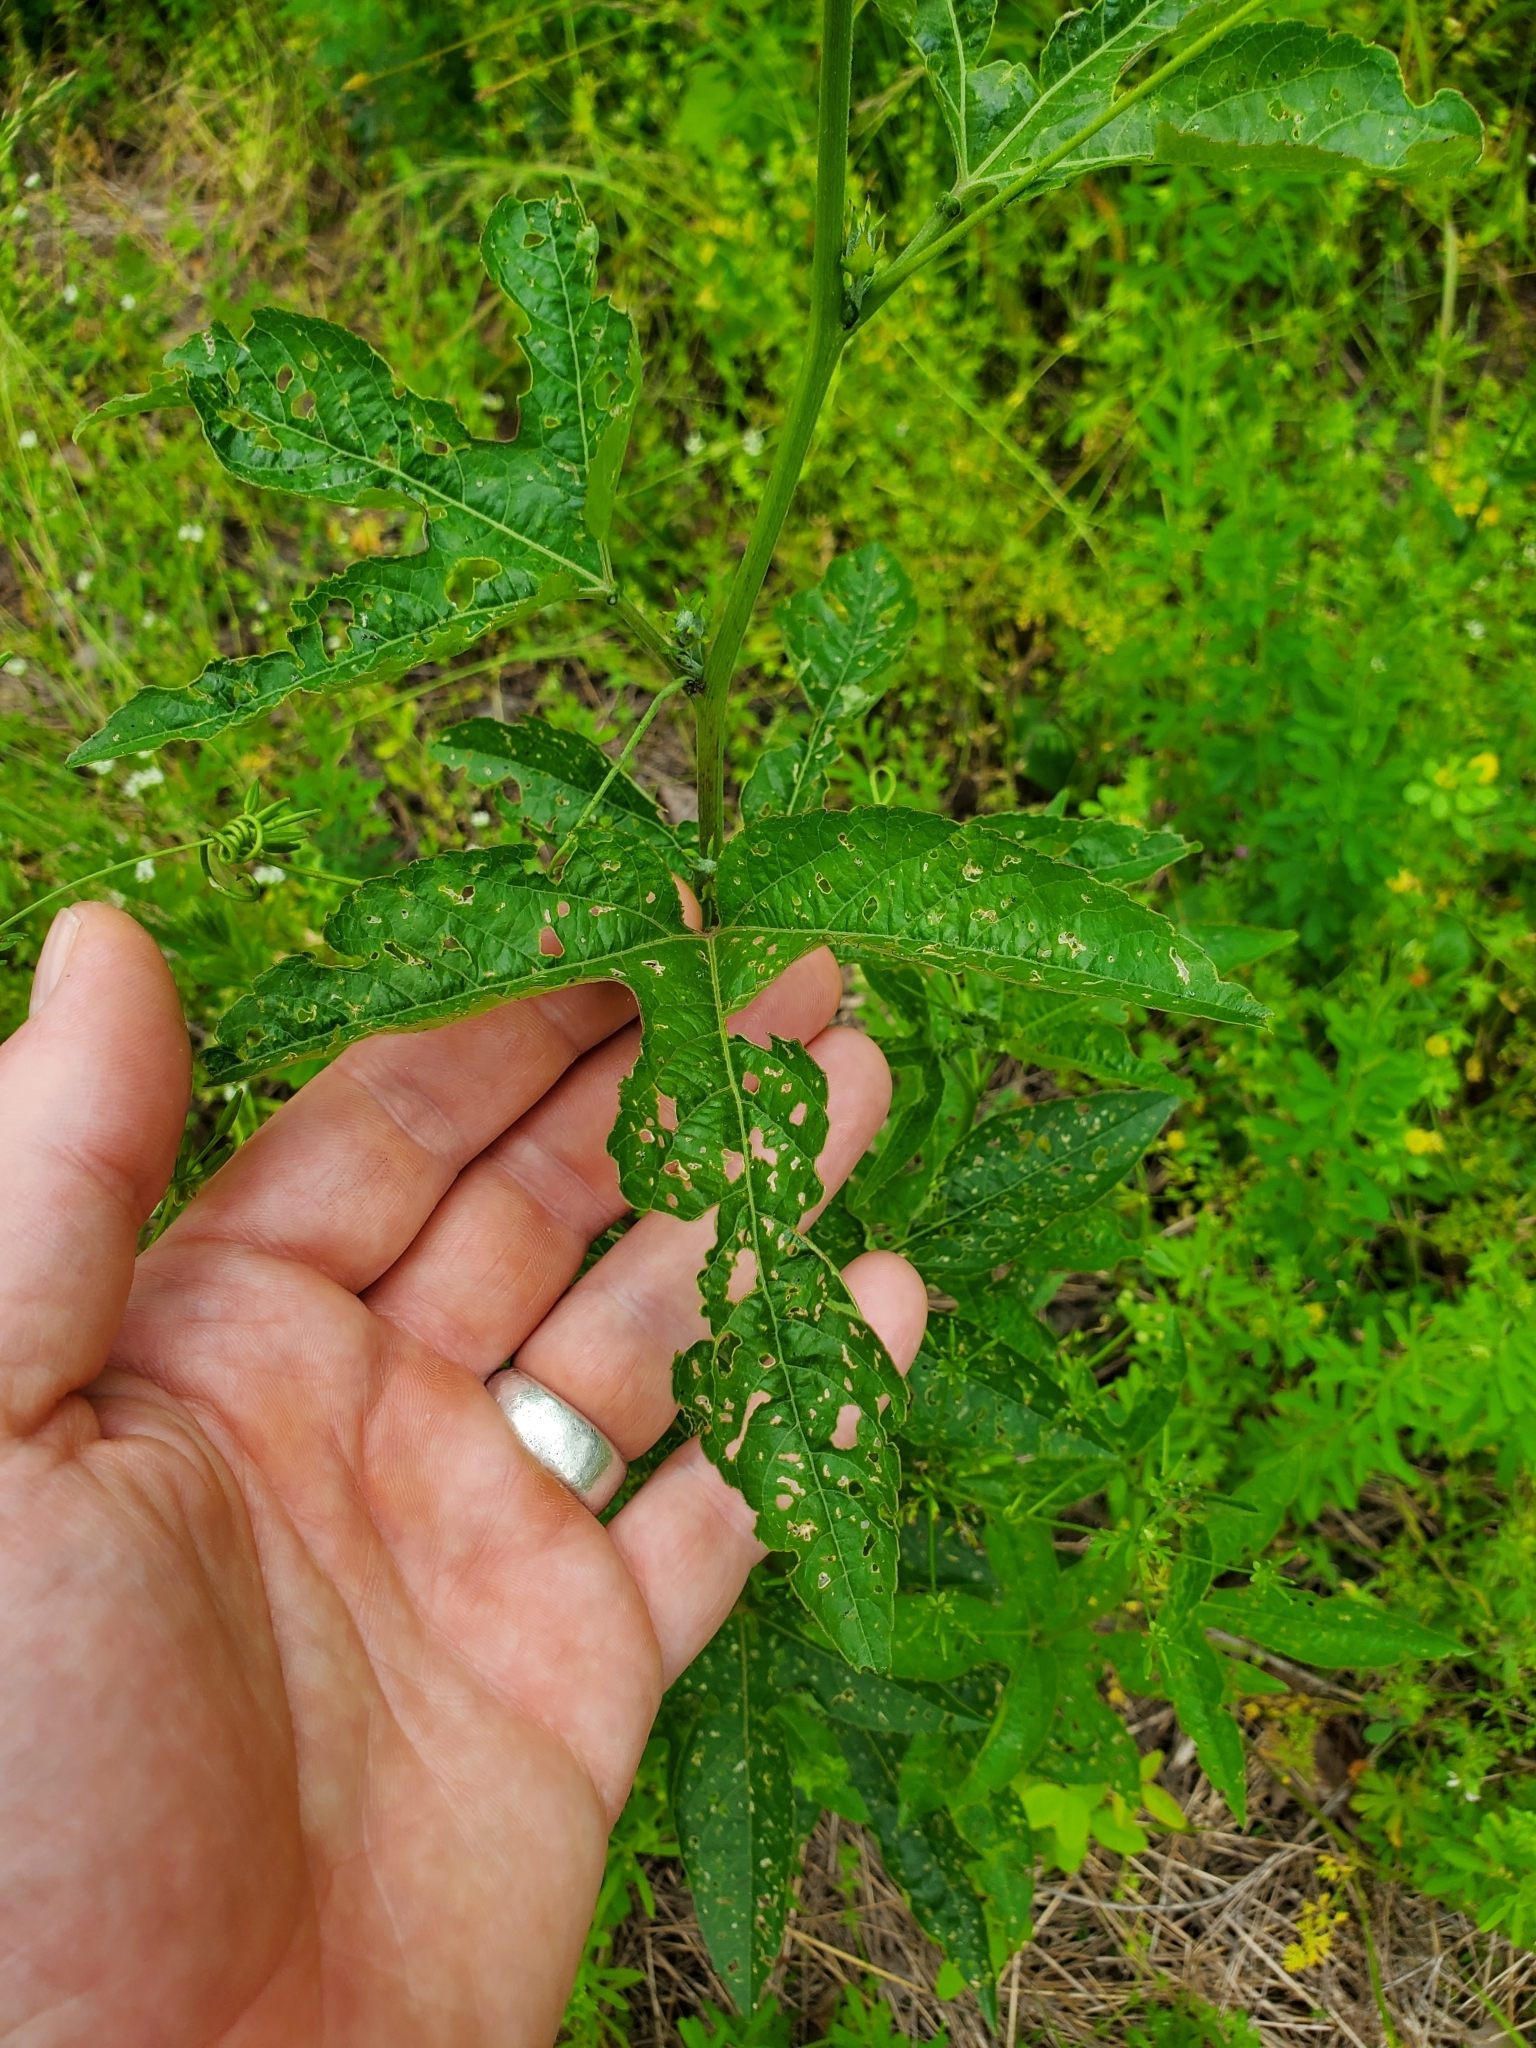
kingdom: Plantae
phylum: Tracheophyta
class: Magnoliopsida
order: Malpighiales
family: Passifloraceae
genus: Passiflora
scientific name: Passiflora incarnata
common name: Apricot-vine
